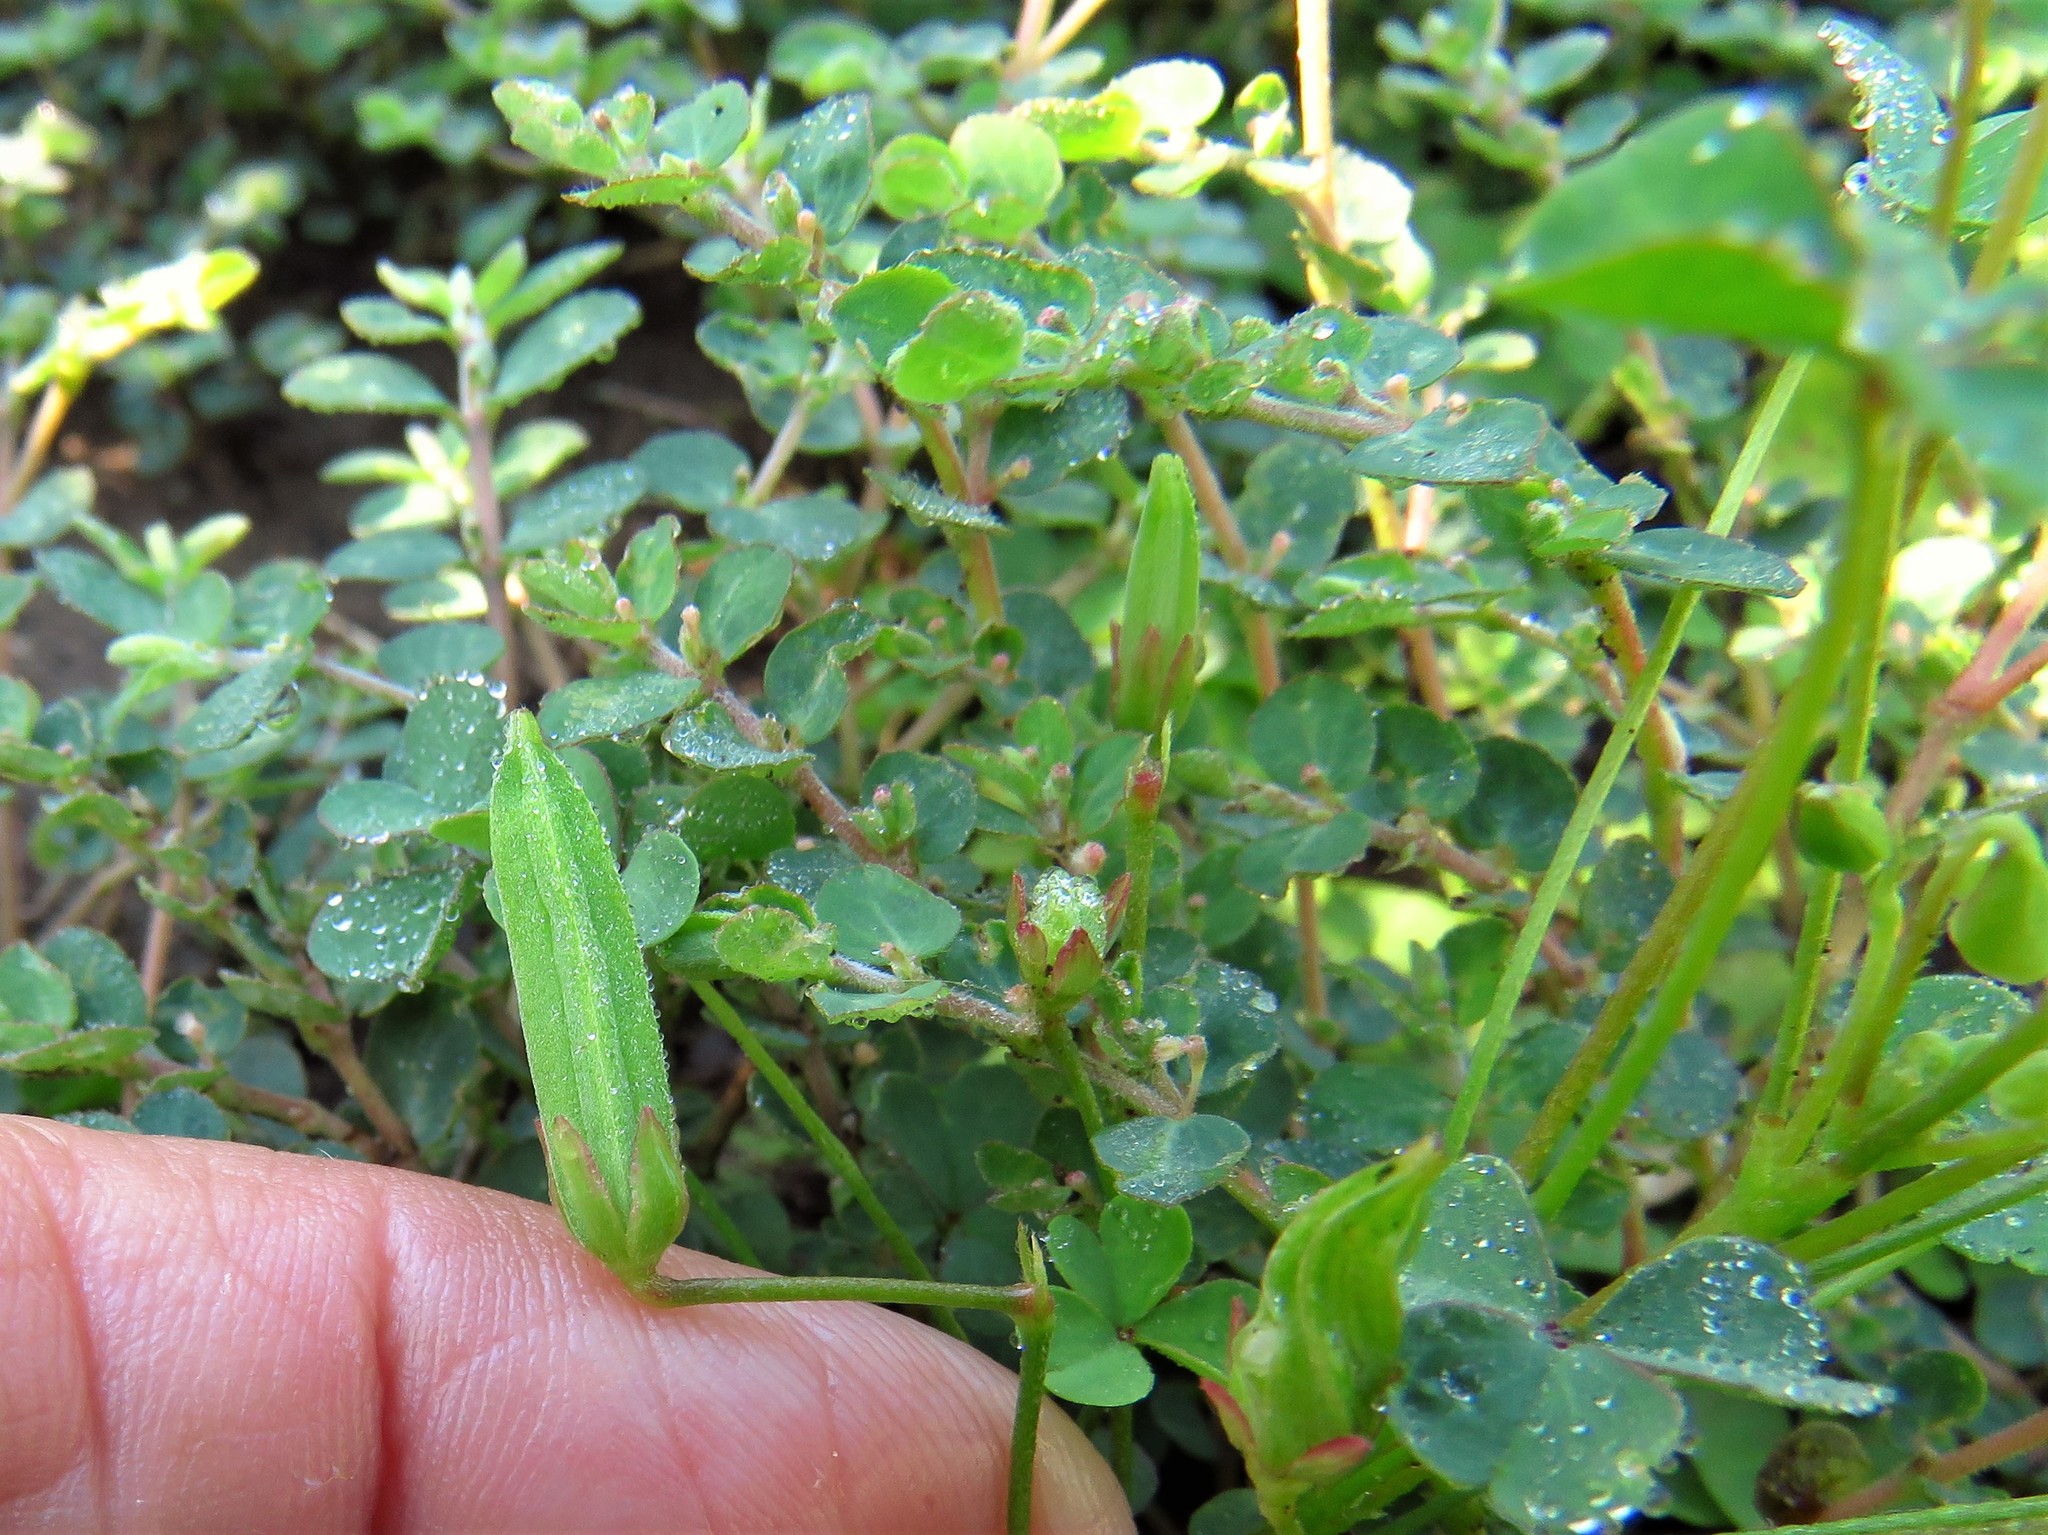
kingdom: Plantae
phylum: Tracheophyta
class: Magnoliopsida
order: Oxalidales
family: Oxalidaceae
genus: Oxalis
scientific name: Oxalis dillenii
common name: Sussex yellow-sorrel
